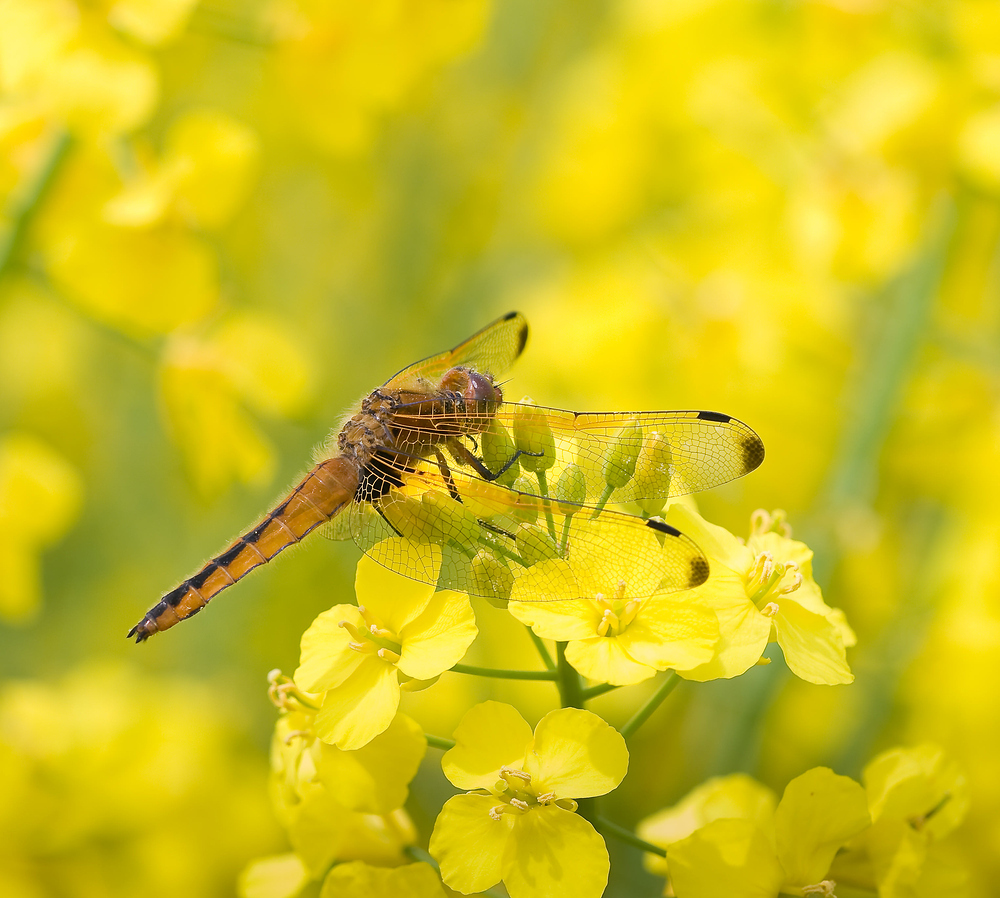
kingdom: Animalia
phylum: Arthropoda
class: Insecta
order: Odonata
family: Libellulidae
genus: Libellula
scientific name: Libellula fulva
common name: Blue chaser
